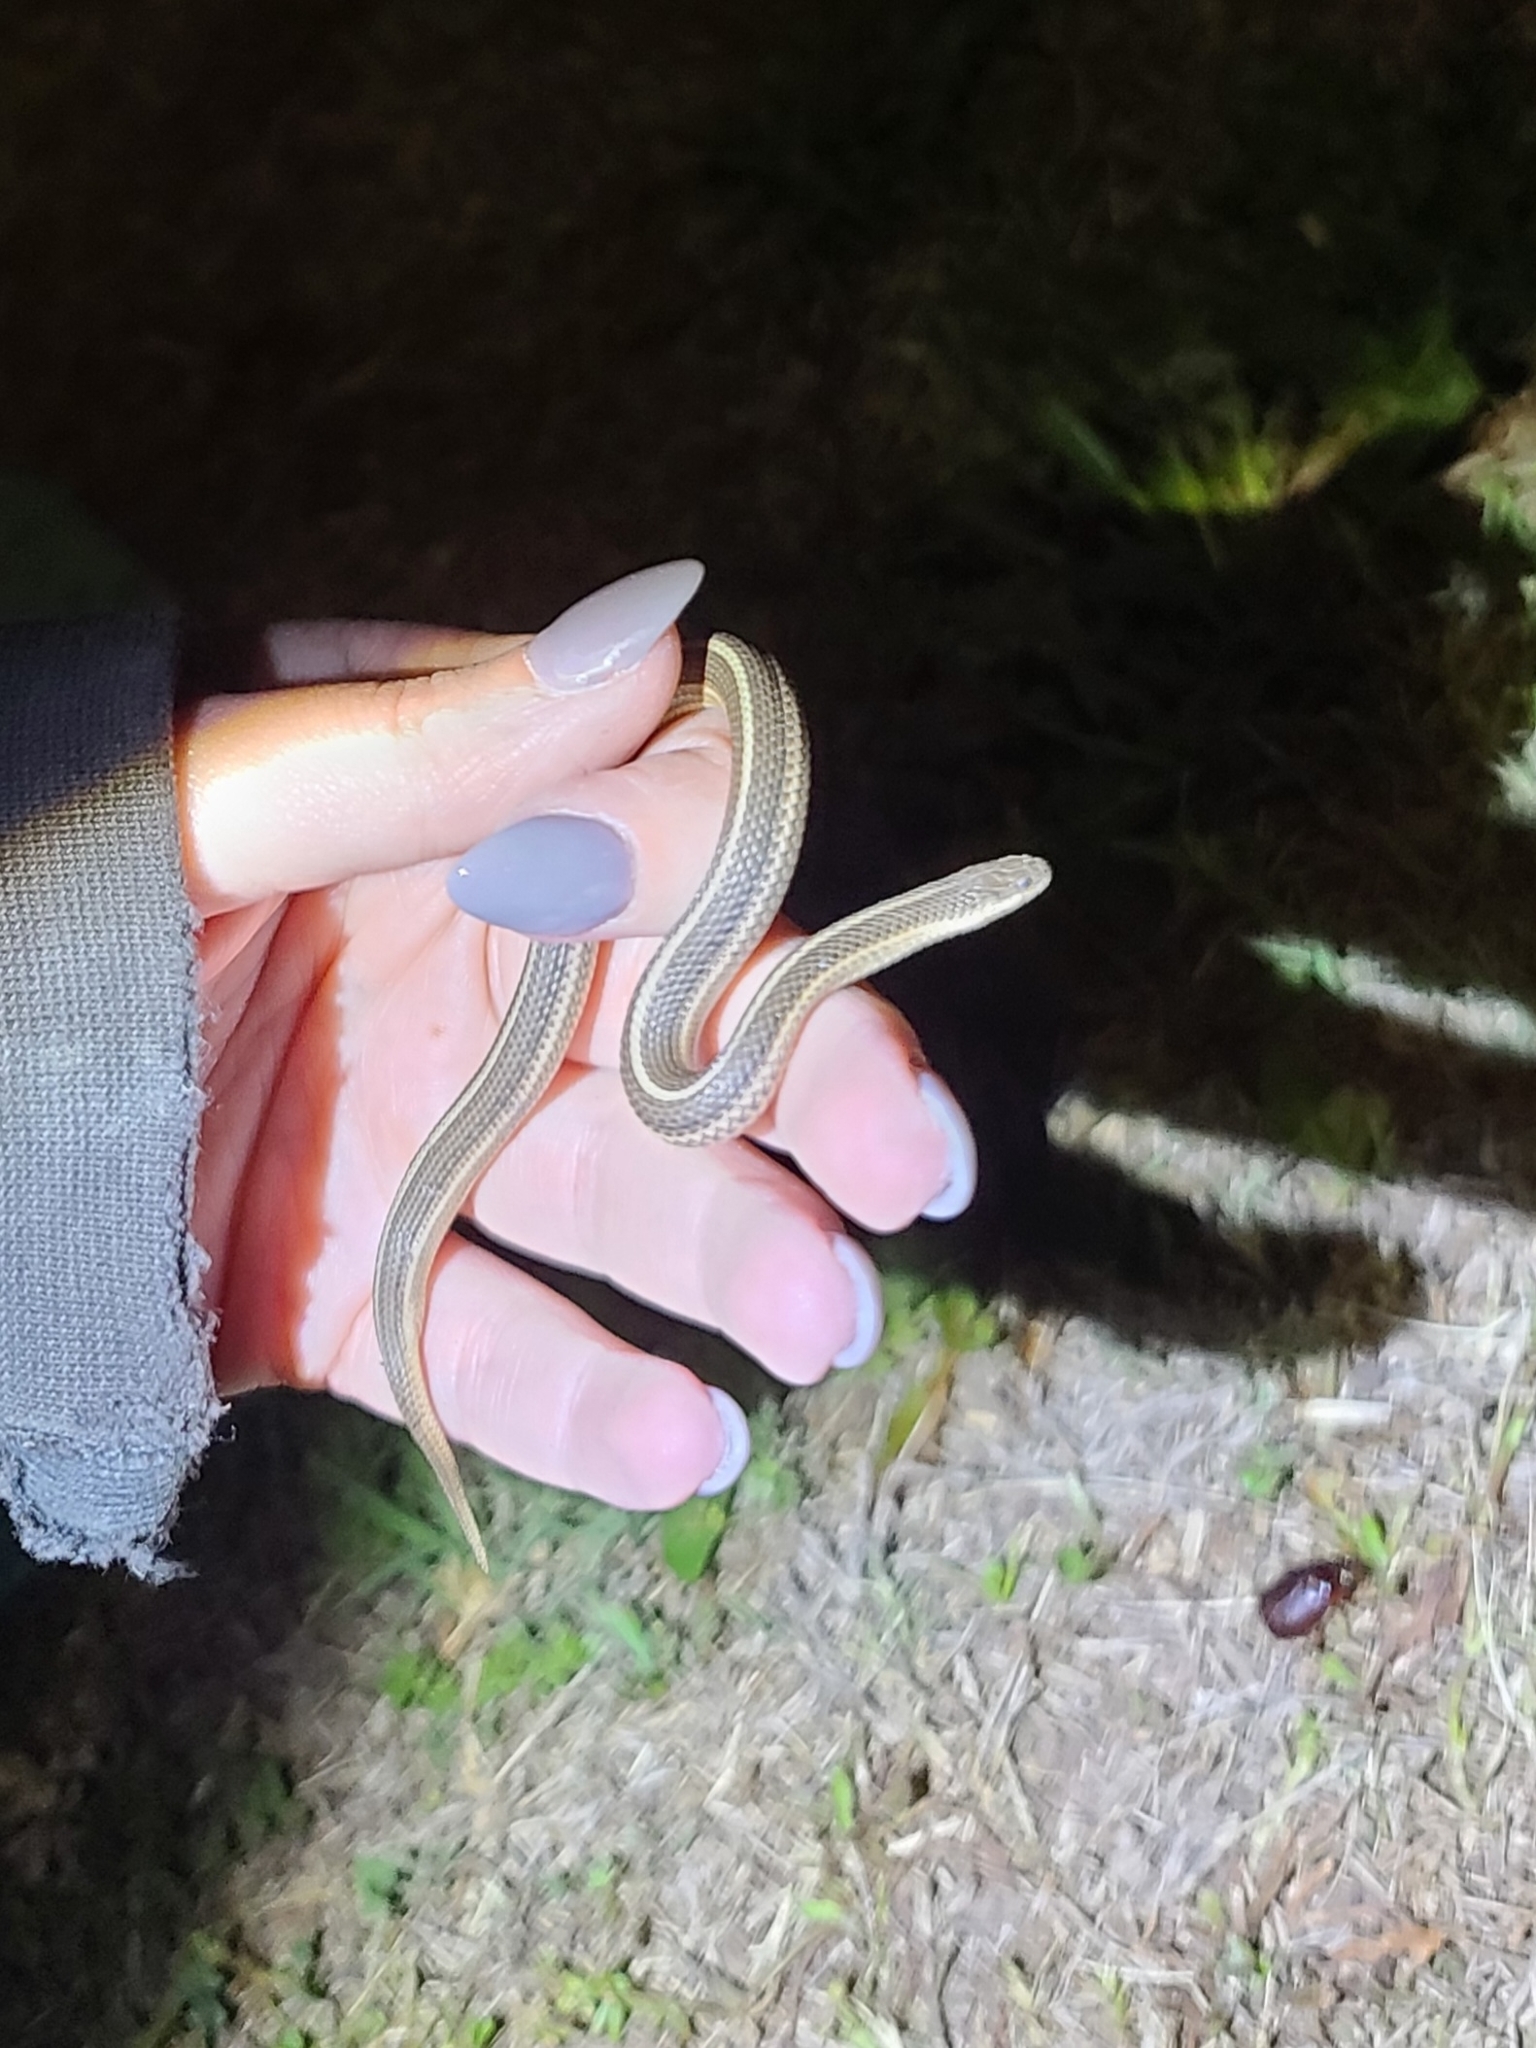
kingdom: Animalia
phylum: Chordata
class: Squamata
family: Colubridae
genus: Tropidoclonion
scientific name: Tropidoclonion lineatum
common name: Lined snake
